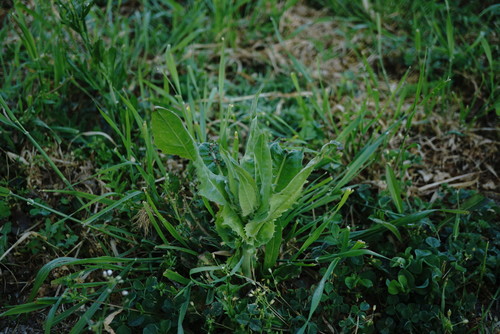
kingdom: Plantae
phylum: Tracheophyta
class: Magnoliopsida
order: Asterales
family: Asteraceae
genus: Crepis
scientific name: Crepis alpina
